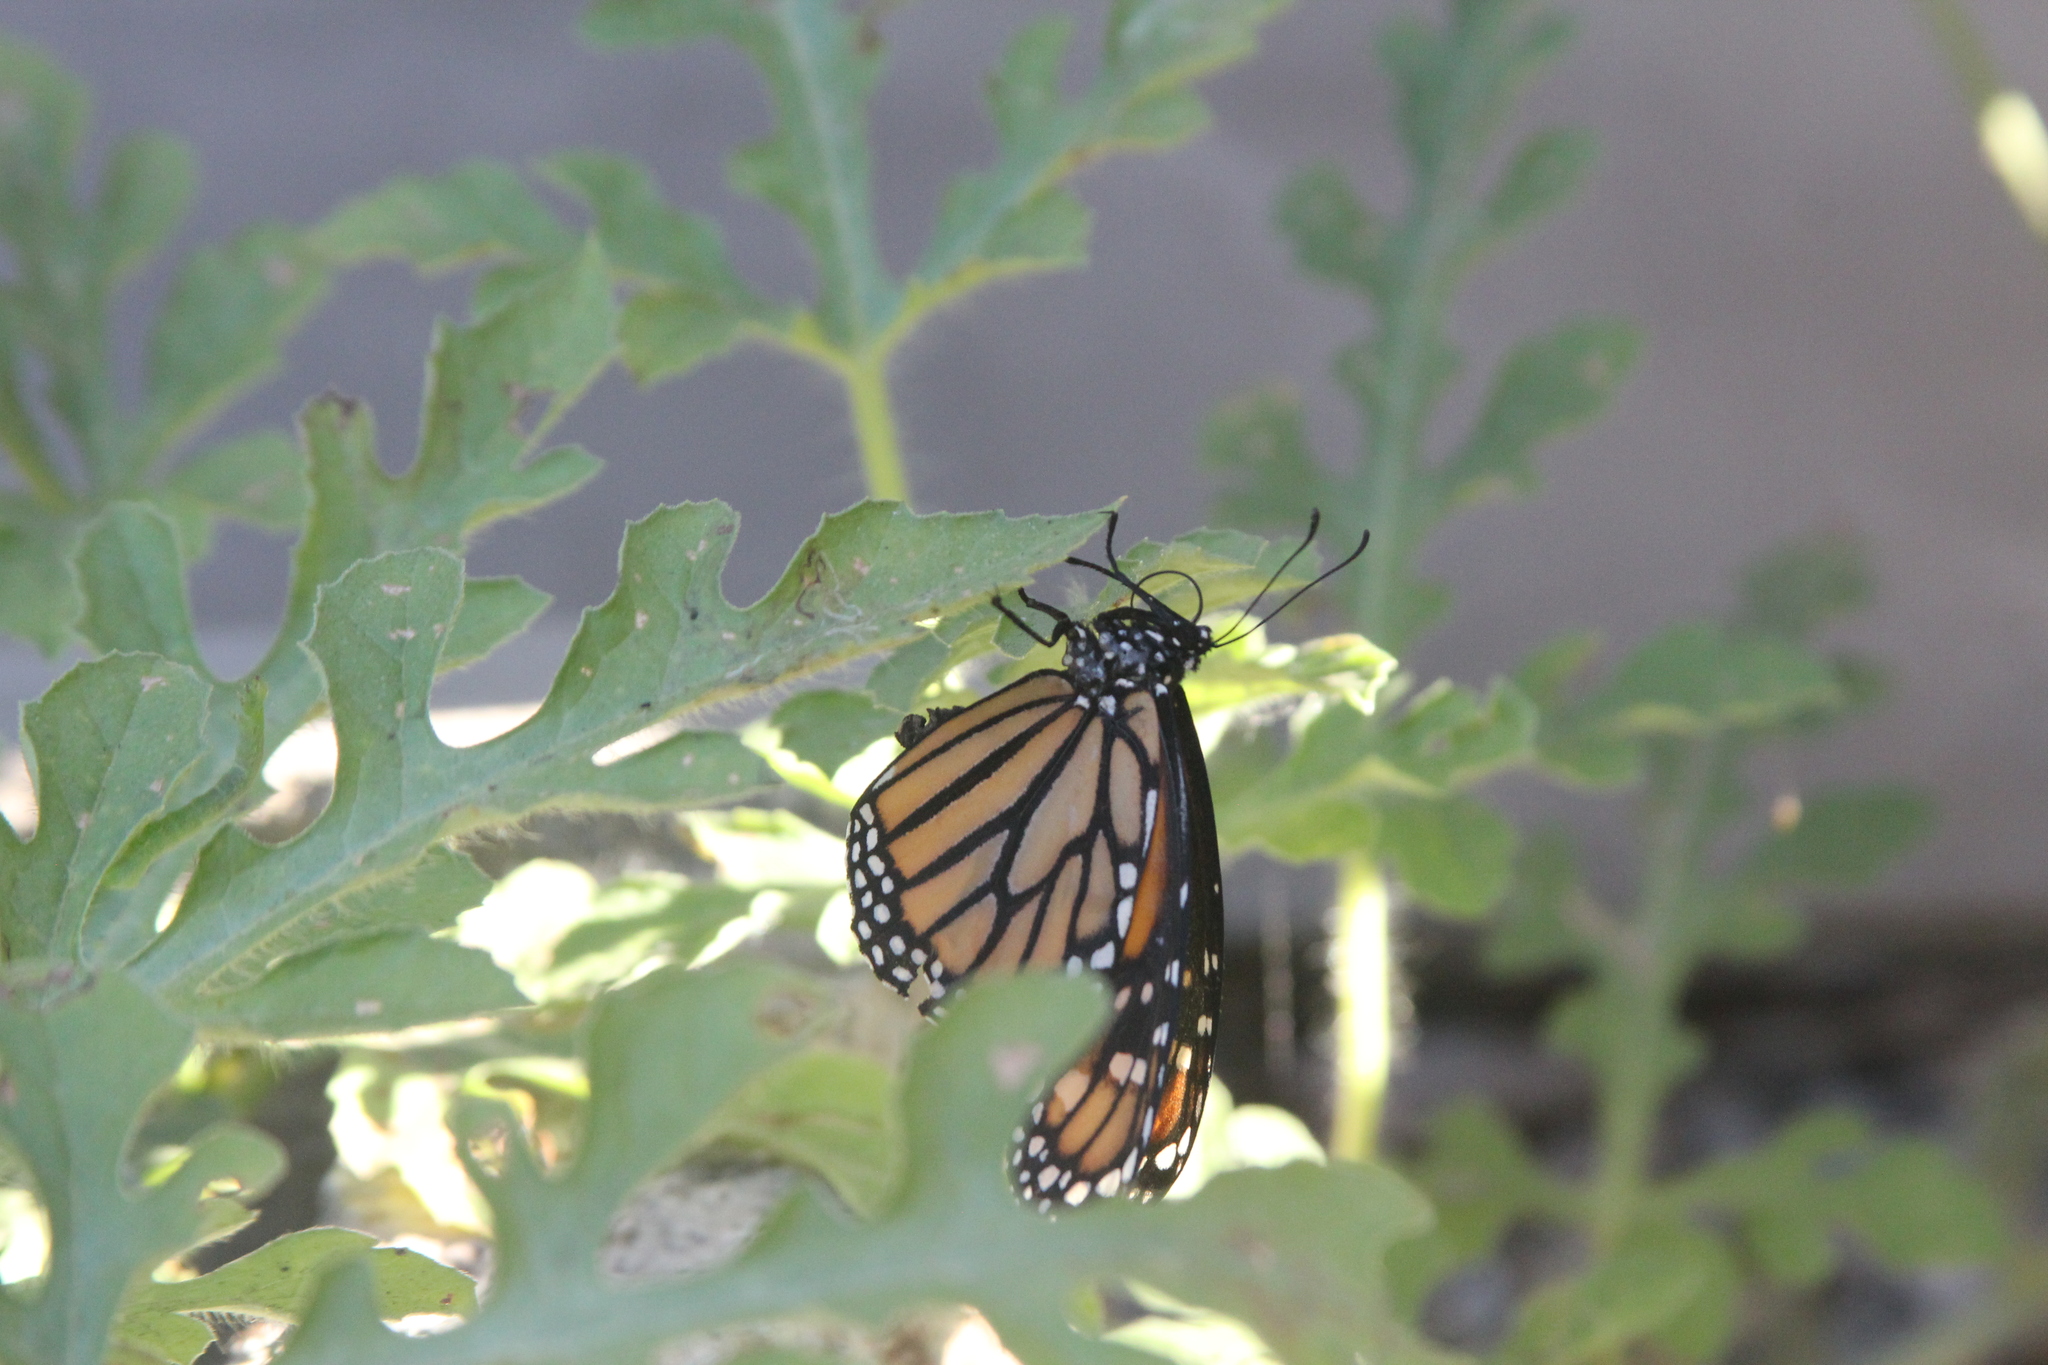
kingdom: Animalia
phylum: Arthropoda
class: Insecta
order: Lepidoptera
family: Nymphalidae
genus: Danaus
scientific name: Danaus plexippus
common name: Monarch
